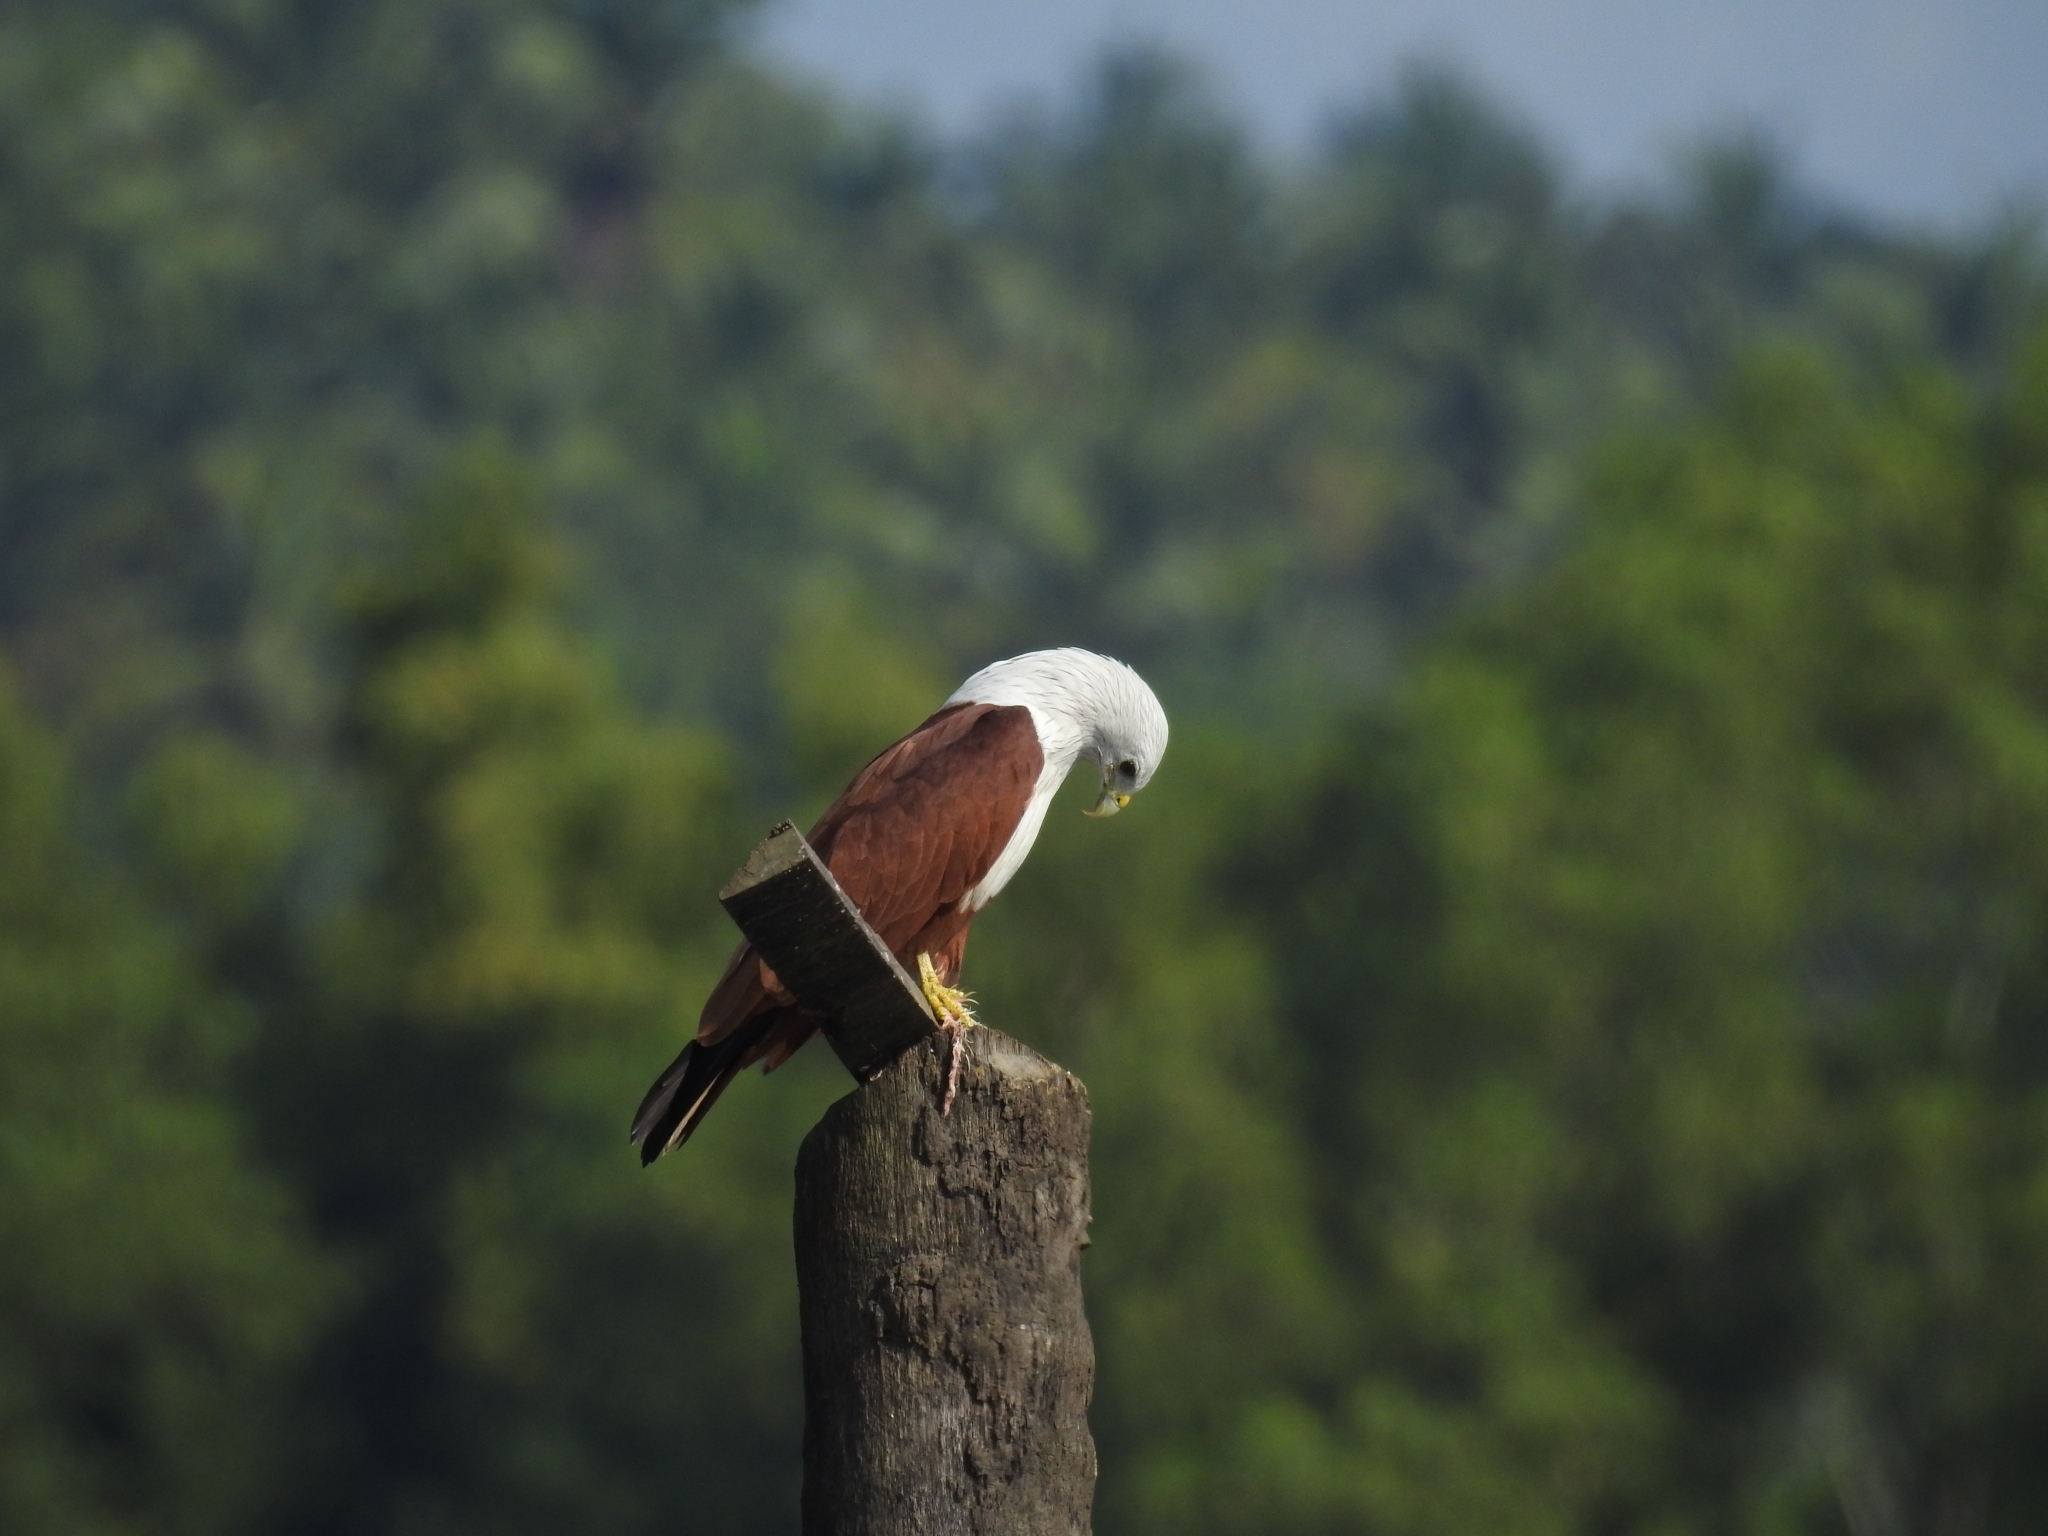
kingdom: Animalia
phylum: Chordata
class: Aves
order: Accipitriformes
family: Accipitridae
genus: Haliastur
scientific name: Haliastur indus
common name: Brahminy kite
